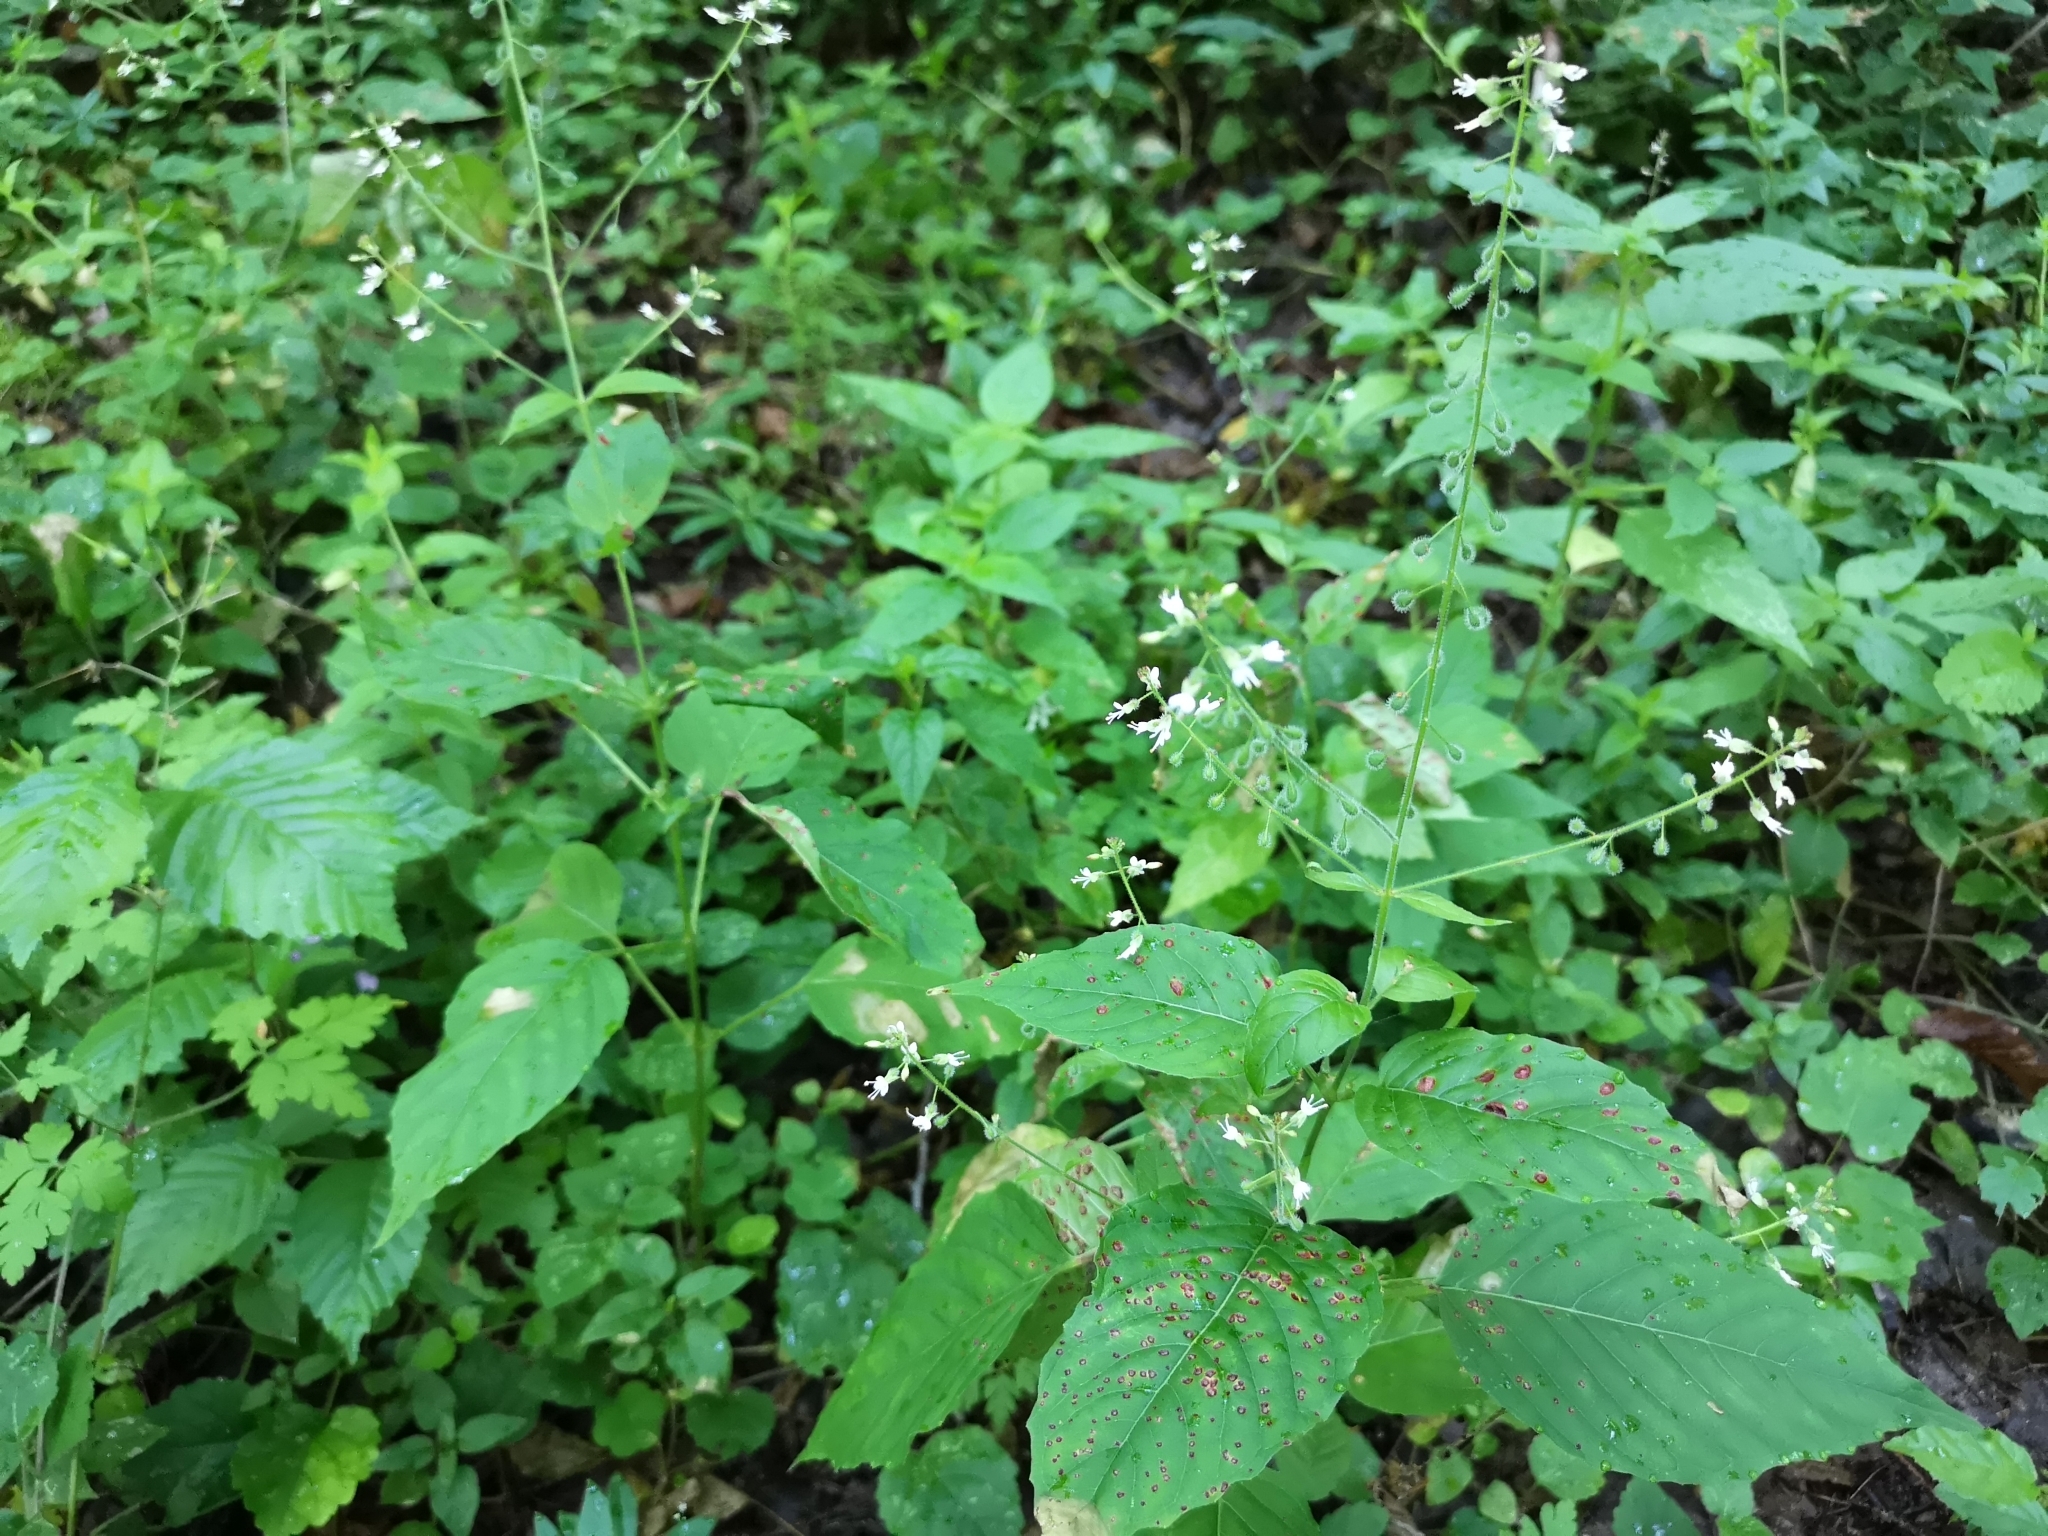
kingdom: Plantae
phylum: Tracheophyta
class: Magnoliopsida
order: Myrtales
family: Onagraceae
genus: Circaea
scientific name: Circaea lutetiana
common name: Enchanter's-nightshade
